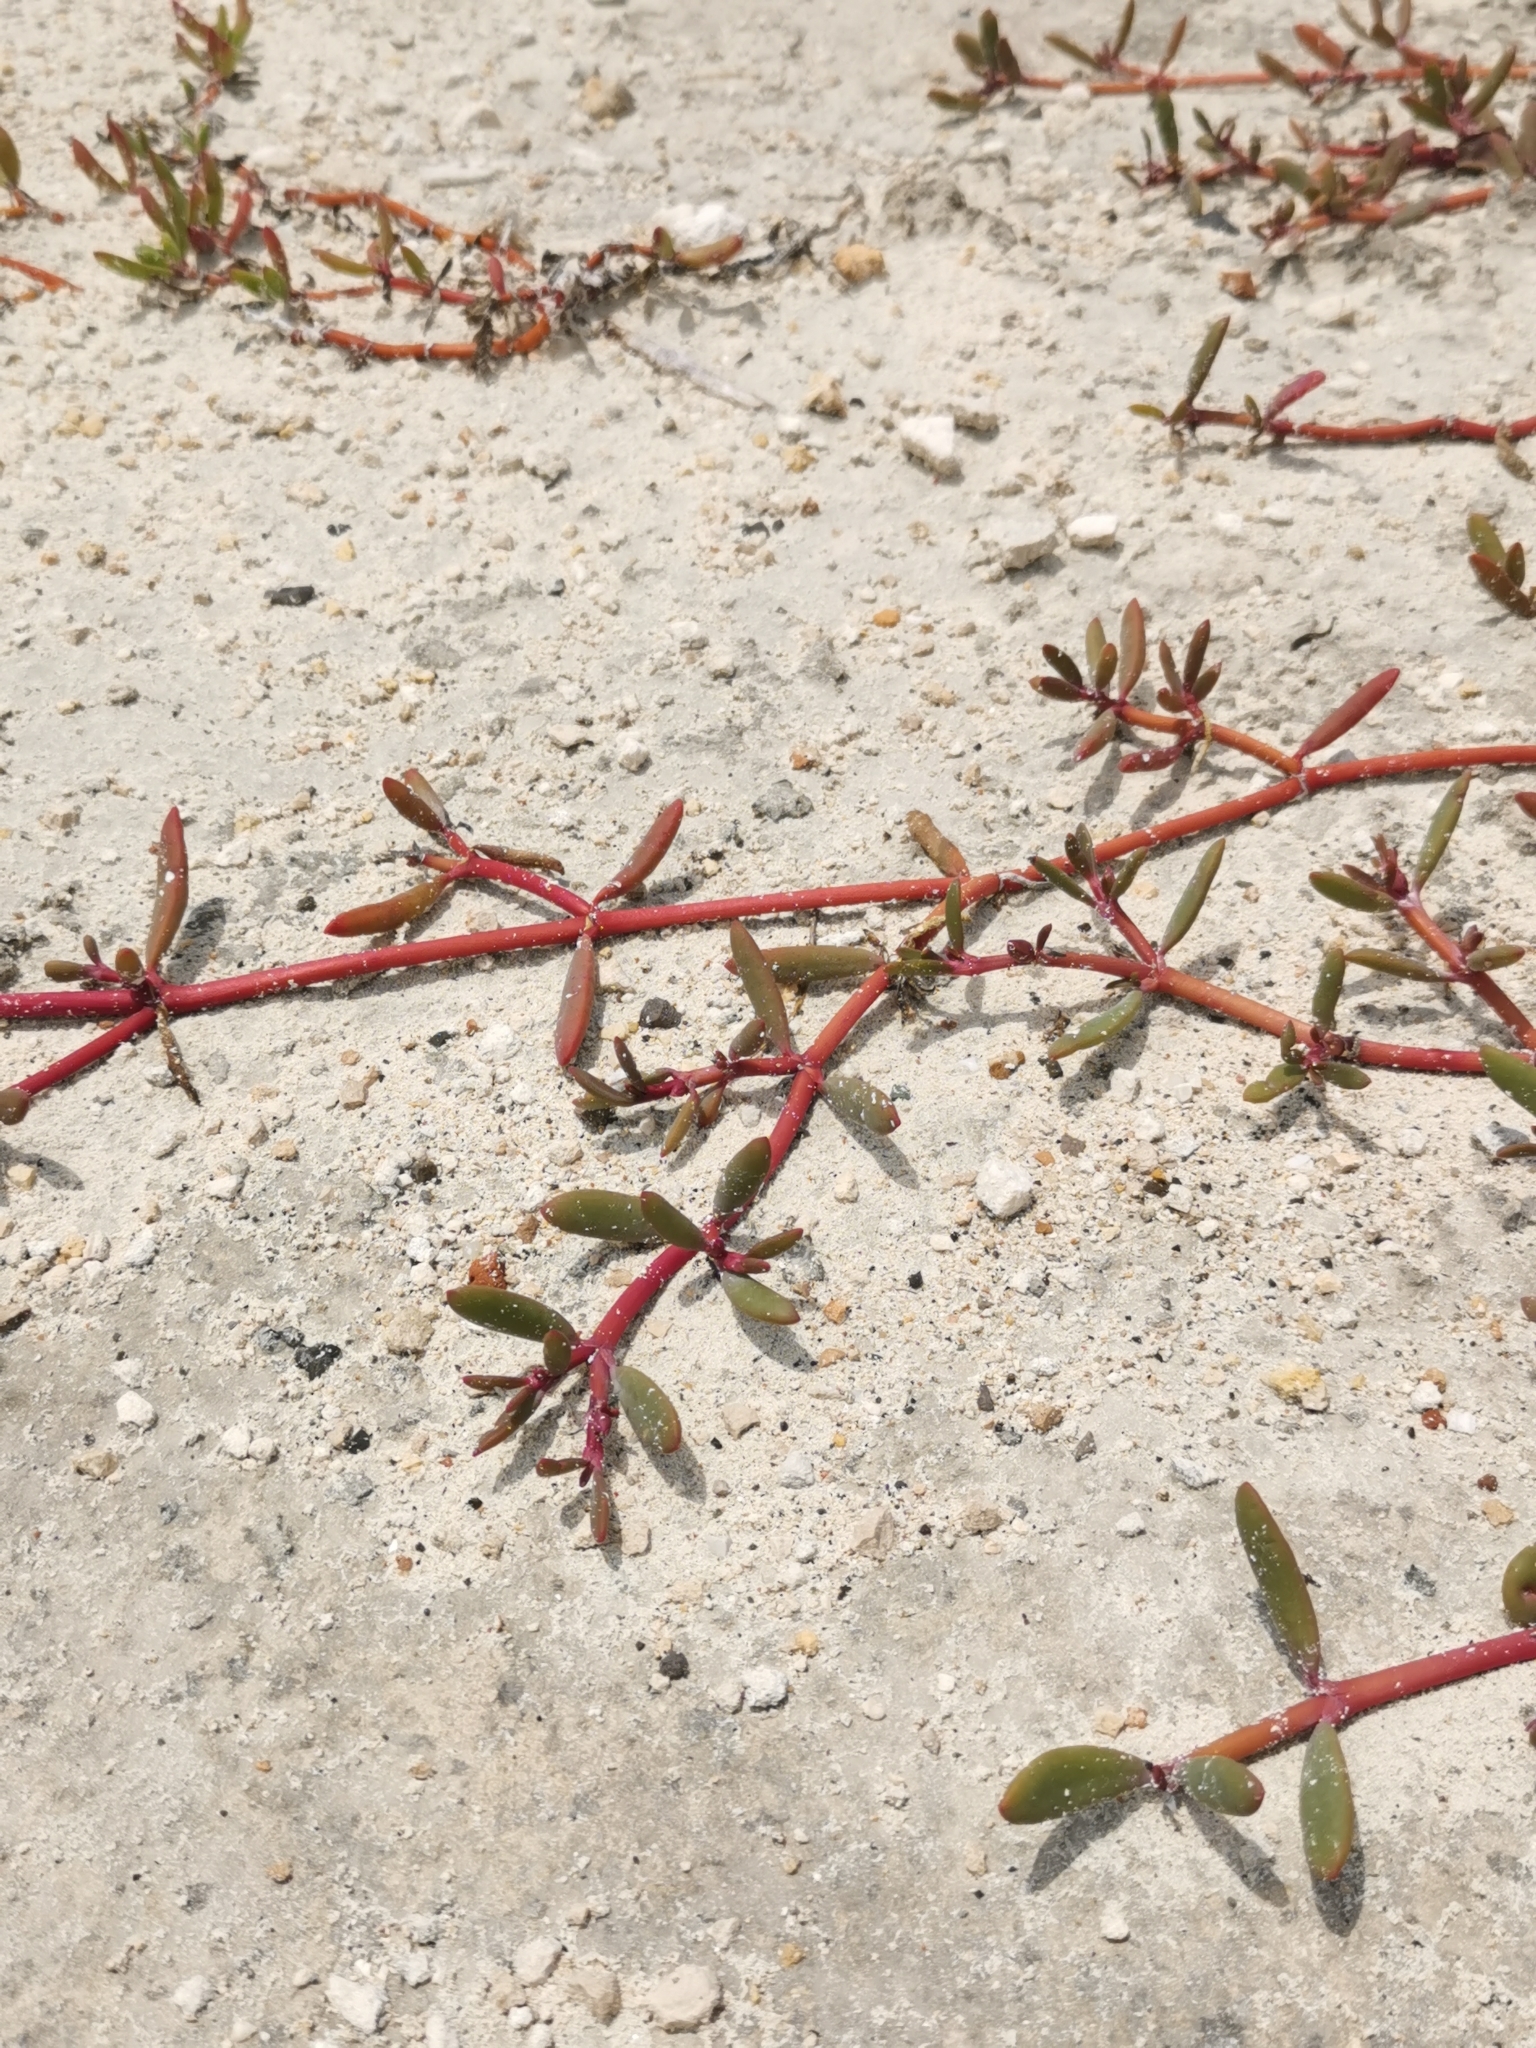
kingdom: Plantae
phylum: Tracheophyta
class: Magnoliopsida
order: Caryophyllales
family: Aizoaceae
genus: Sesuvium
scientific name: Sesuvium portulacastrum
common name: Sea-purslane
